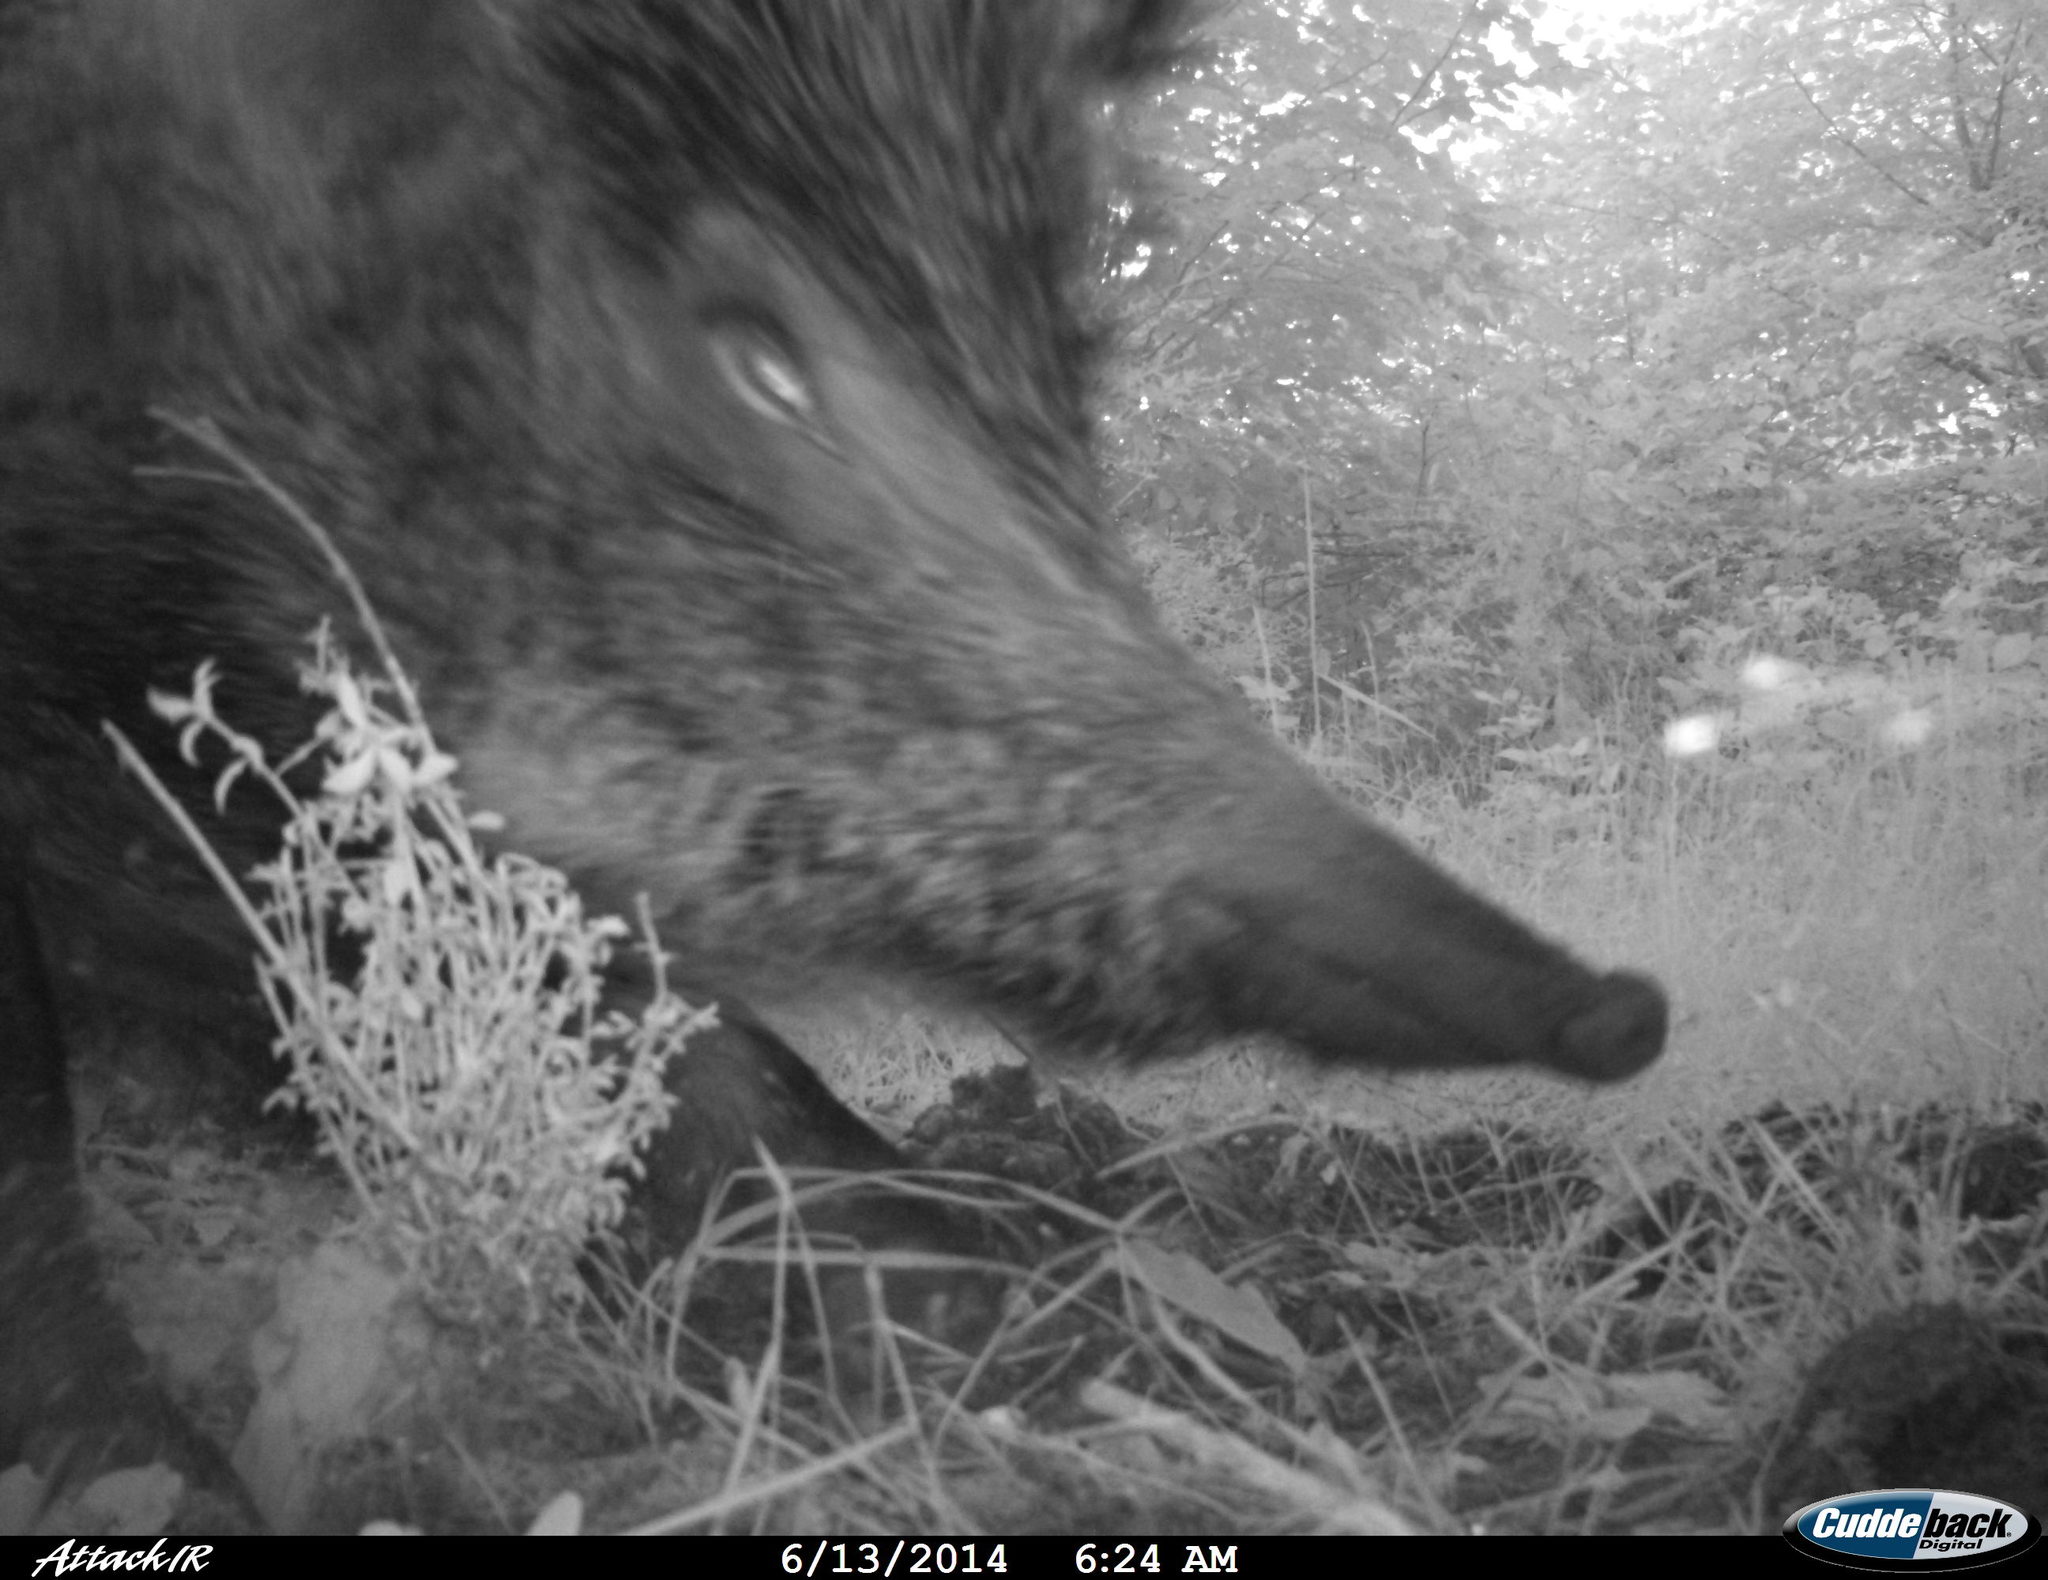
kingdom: Animalia
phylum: Chordata
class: Mammalia
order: Artiodactyla
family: Suidae
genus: Sus
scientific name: Sus scrofa
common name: Wild boar
